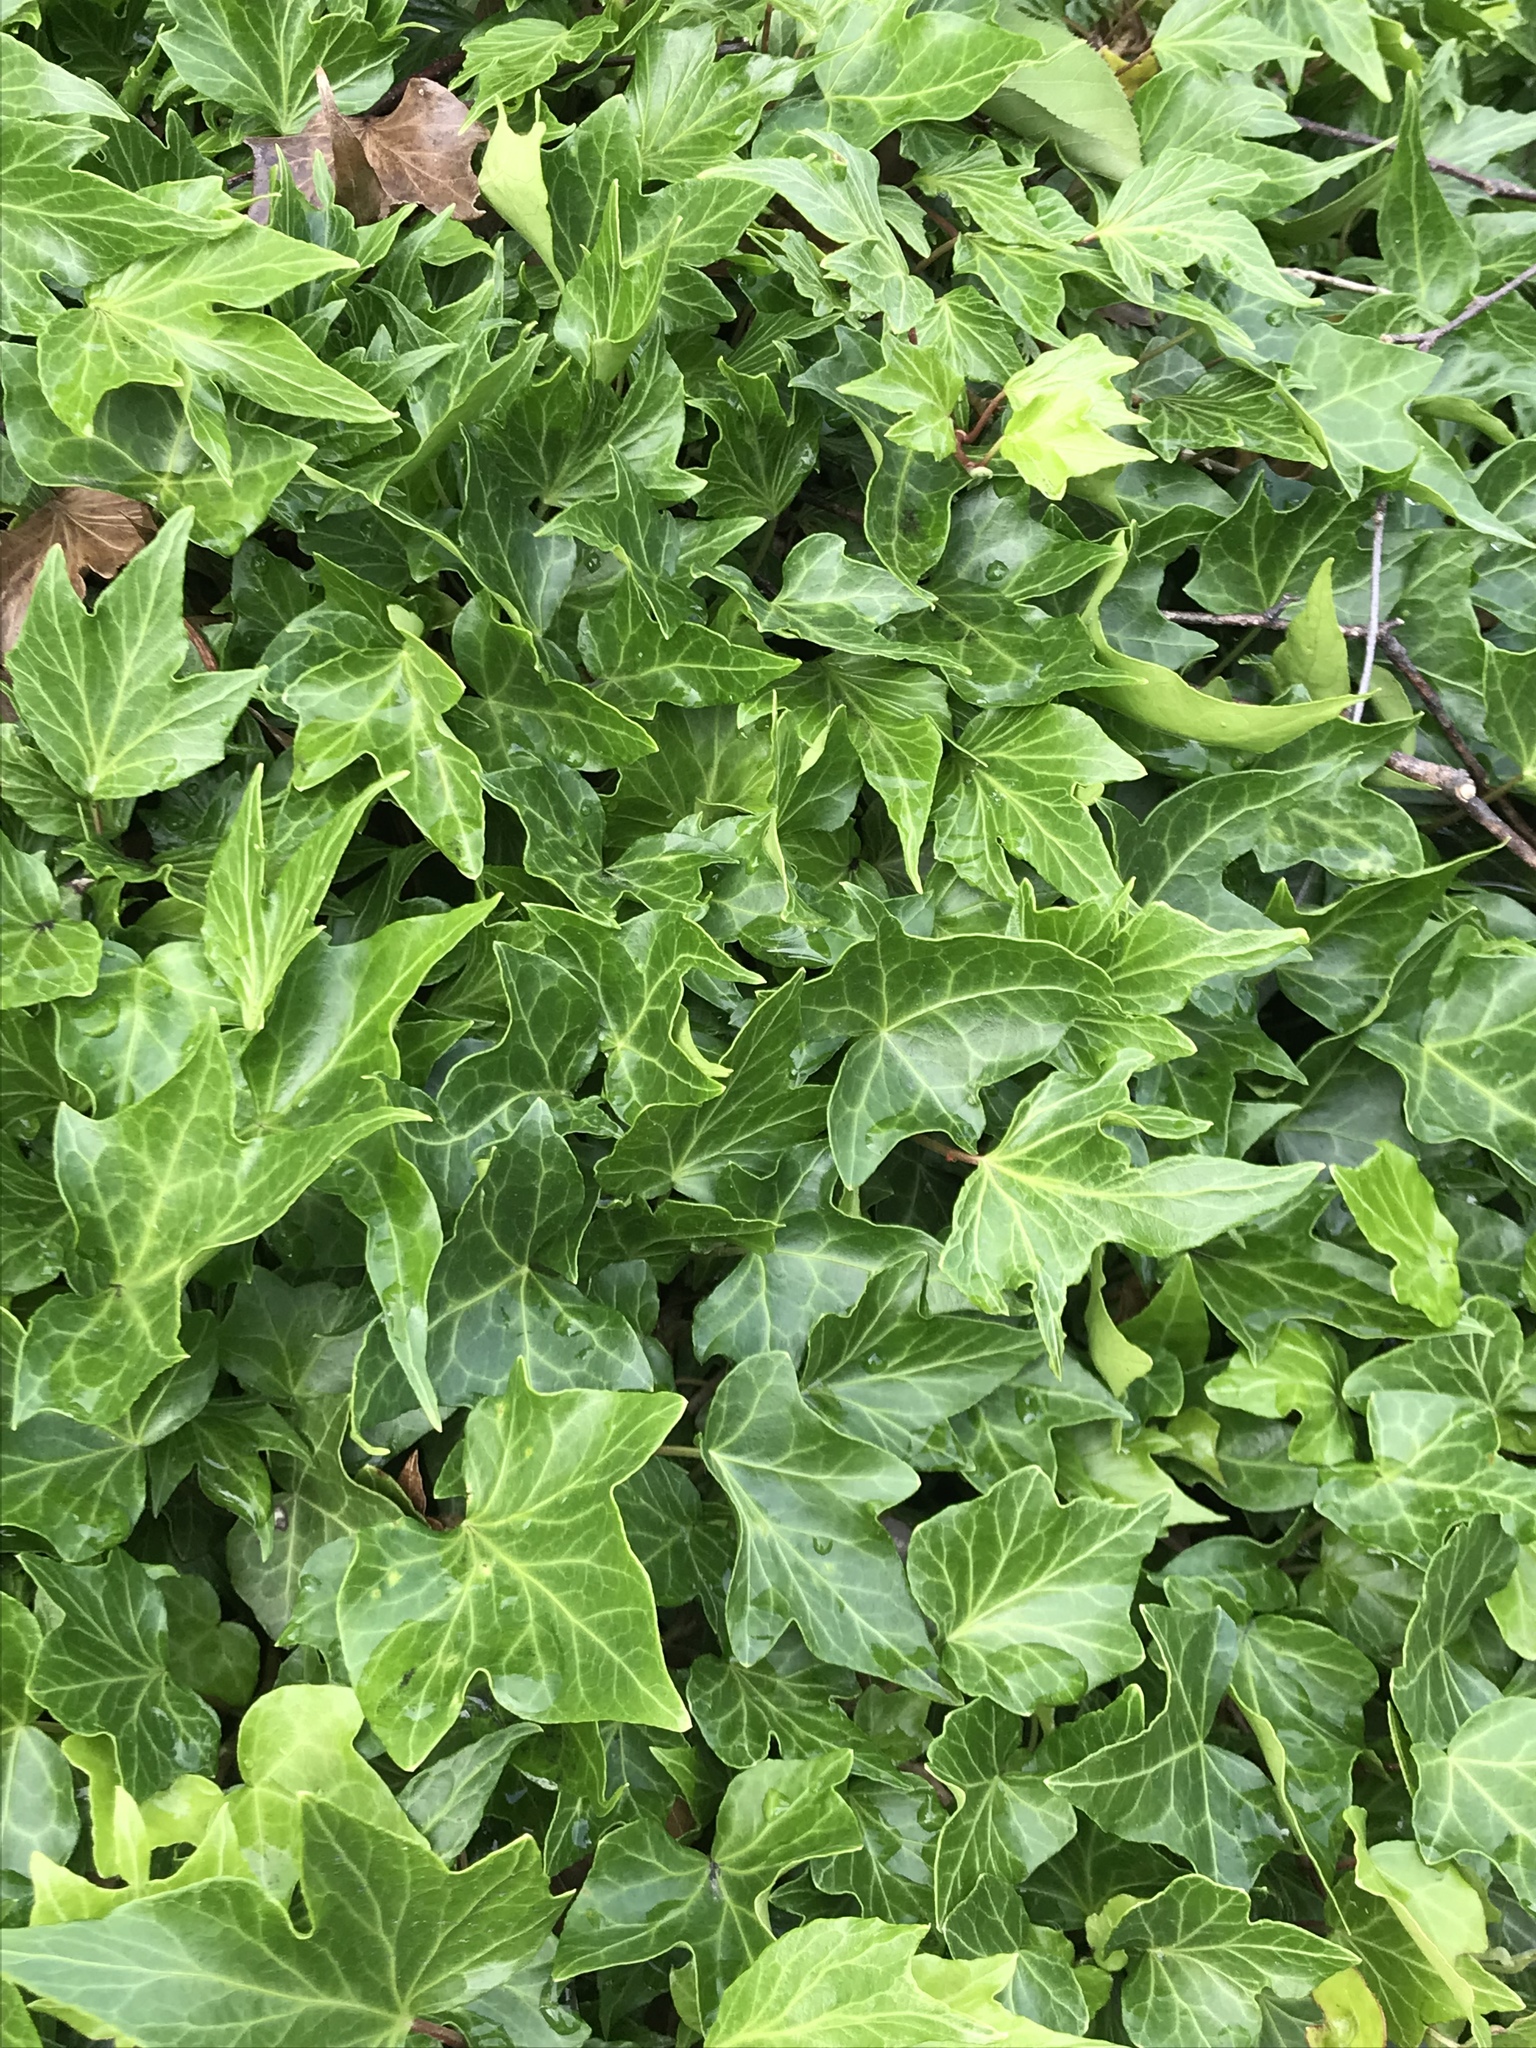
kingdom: Plantae
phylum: Tracheophyta
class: Magnoliopsida
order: Apiales
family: Araliaceae
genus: Hedera
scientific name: Hedera helix
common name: Ivy
